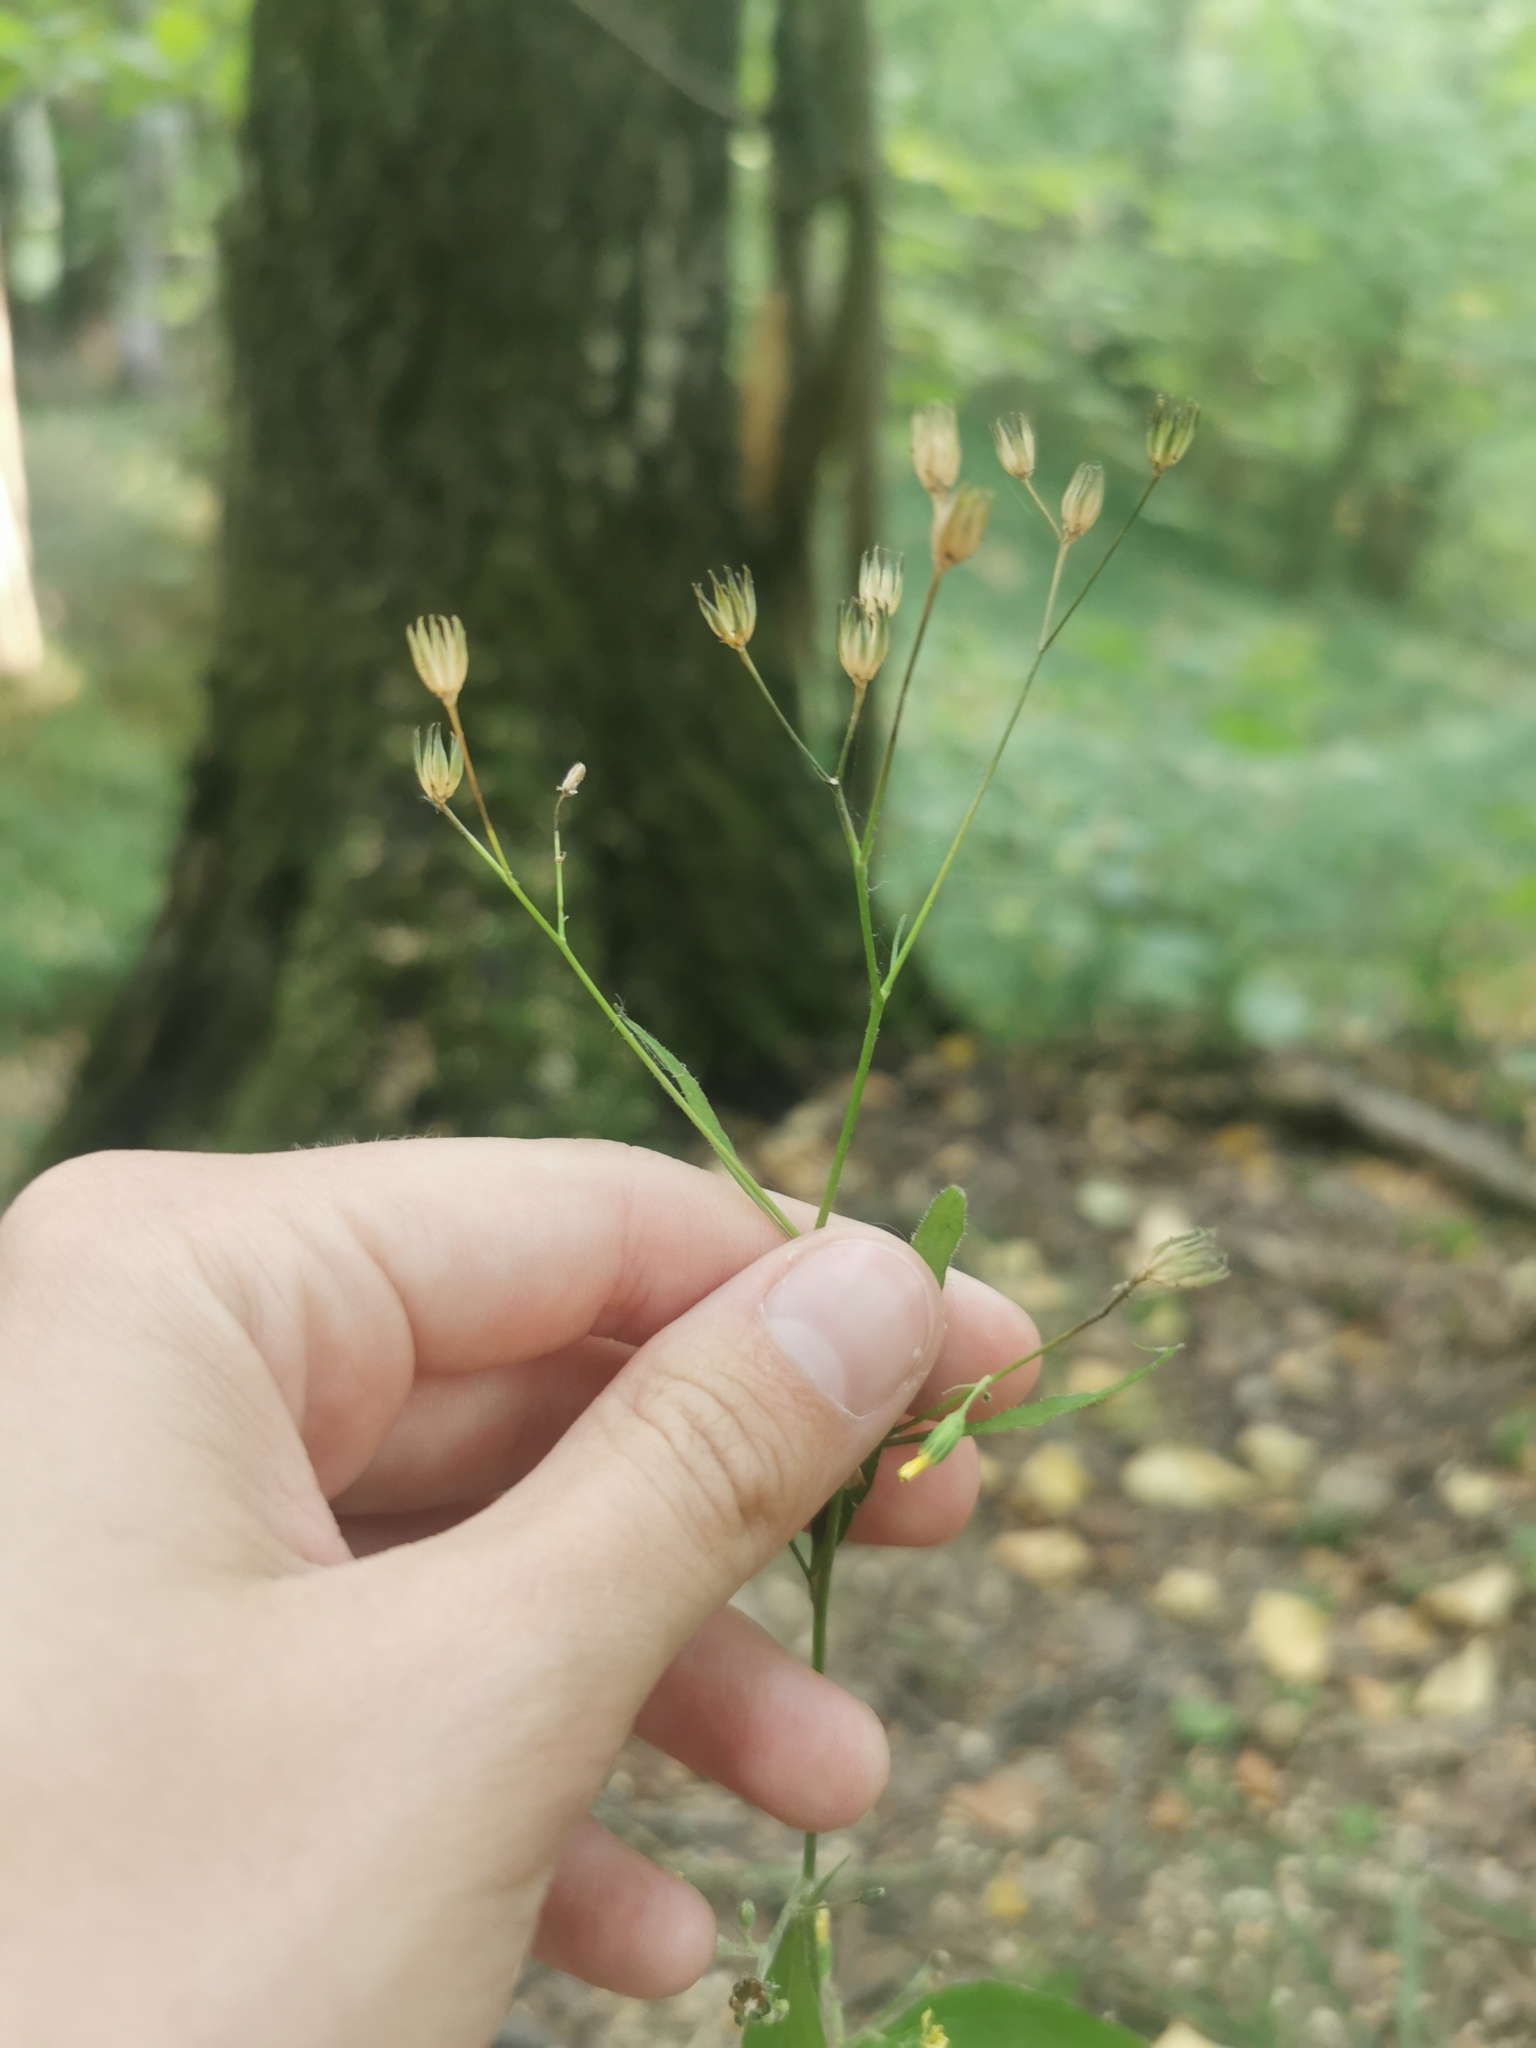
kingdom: Plantae
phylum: Tracheophyta
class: Magnoliopsida
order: Asterales
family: Asteraceae
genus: Lapsana
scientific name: Lapsana communis
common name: Nipplewort
